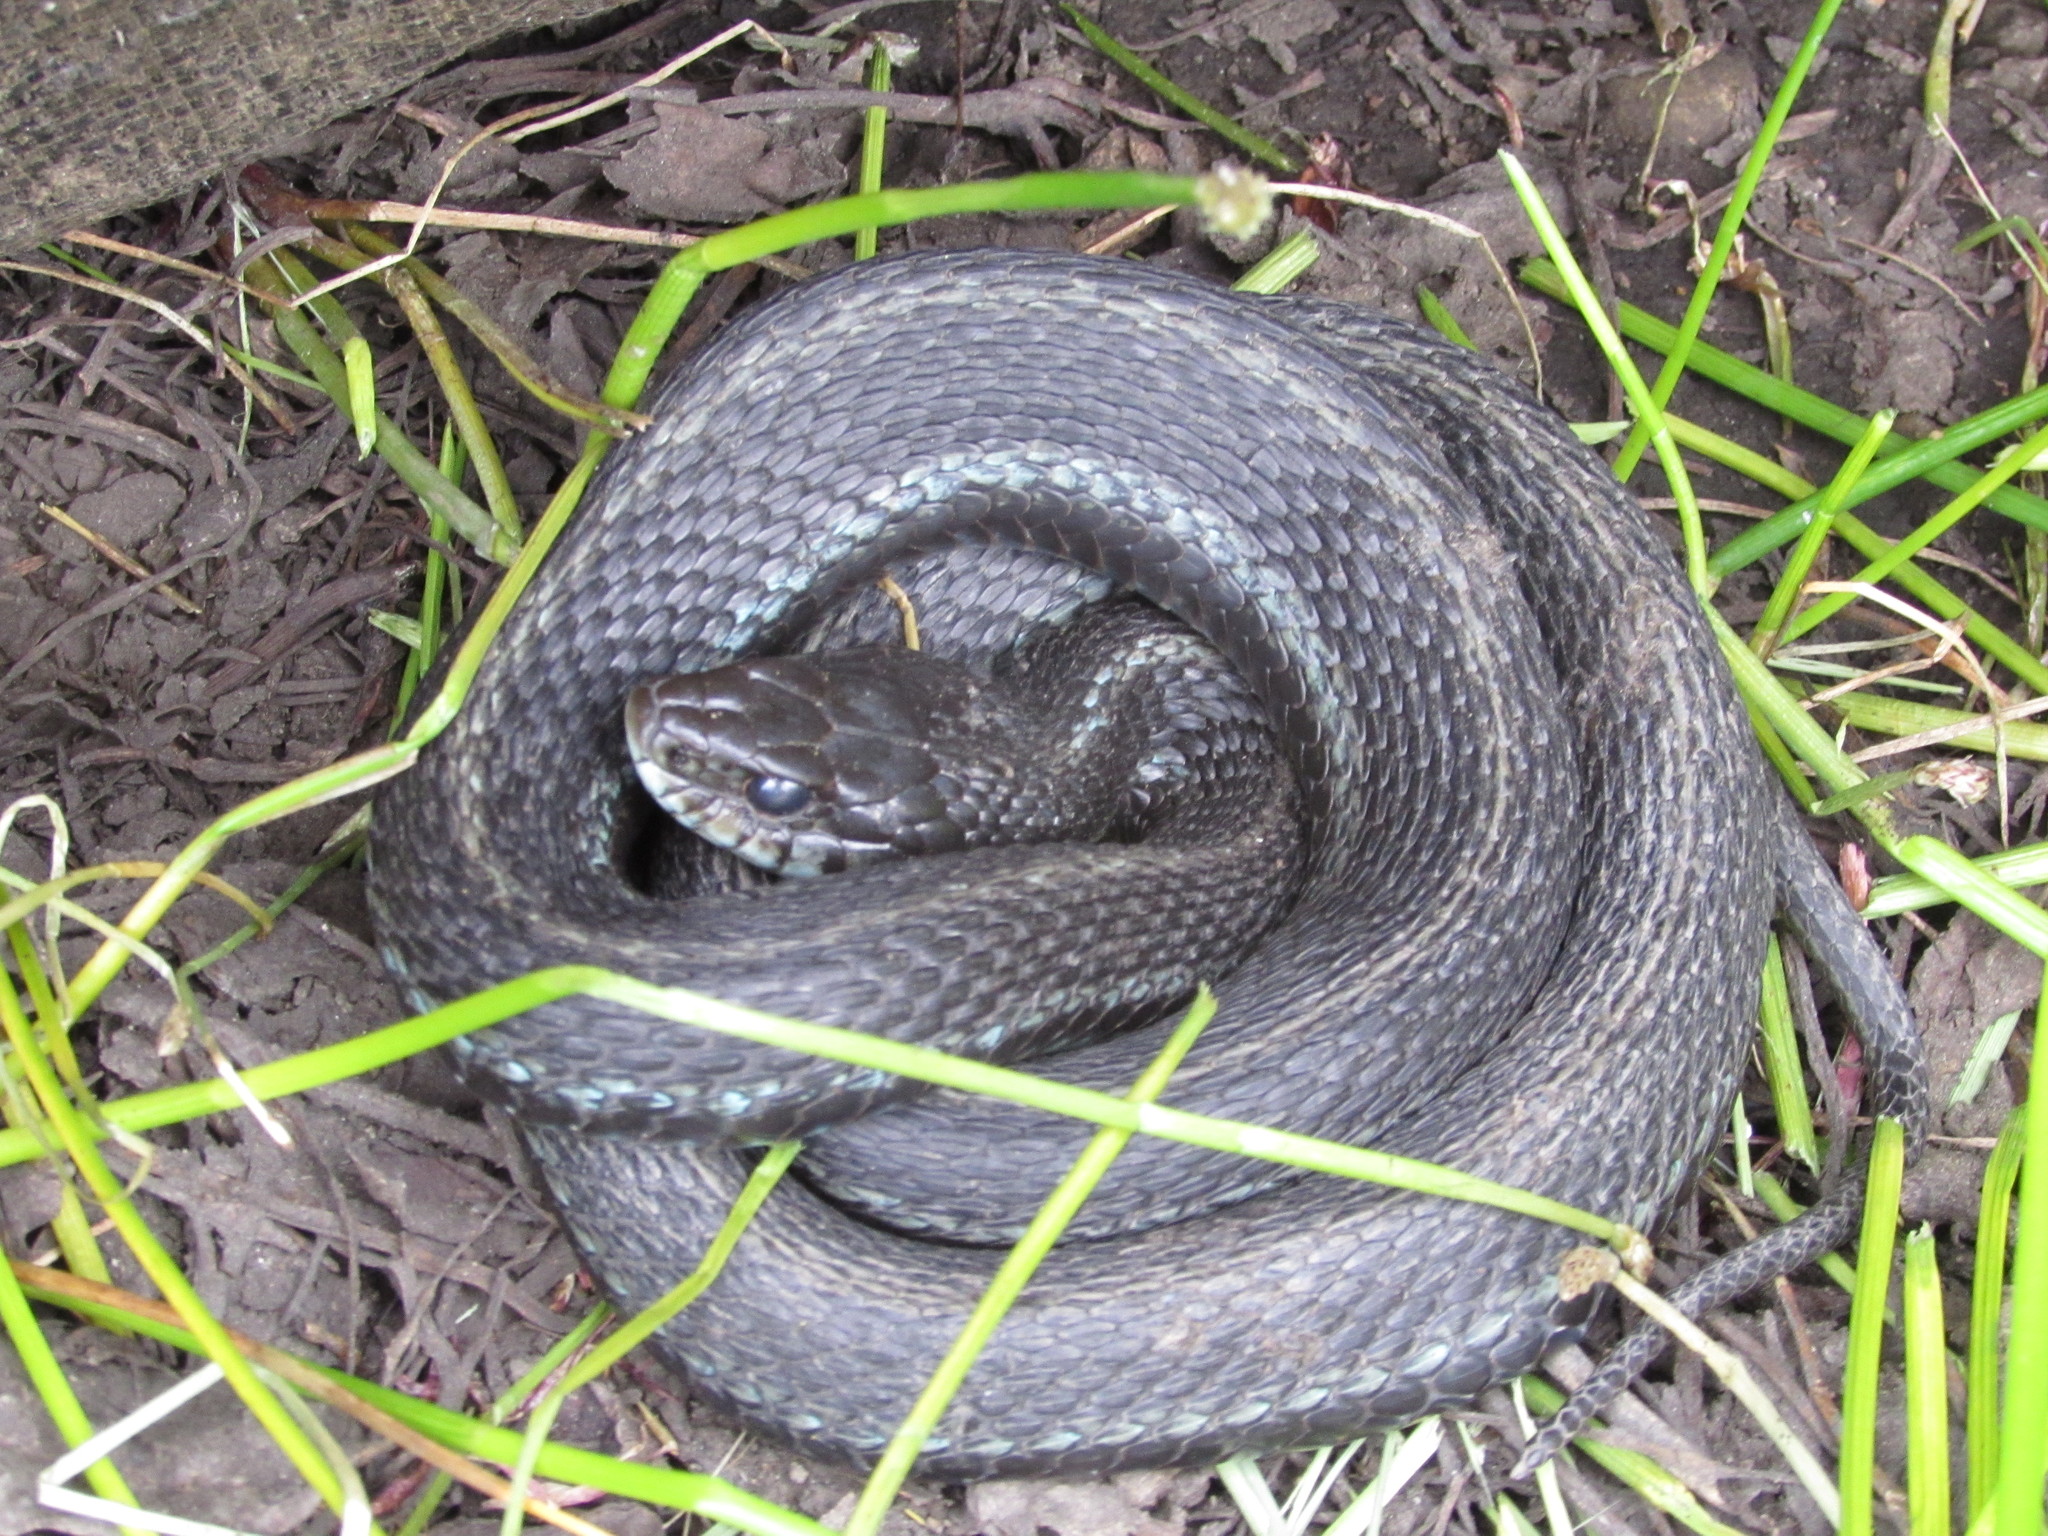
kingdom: Animalia
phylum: Chordata
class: Squamata
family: Colubridae
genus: Thamnophis
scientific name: Thamnophis sirtalis
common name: Common garter snake
